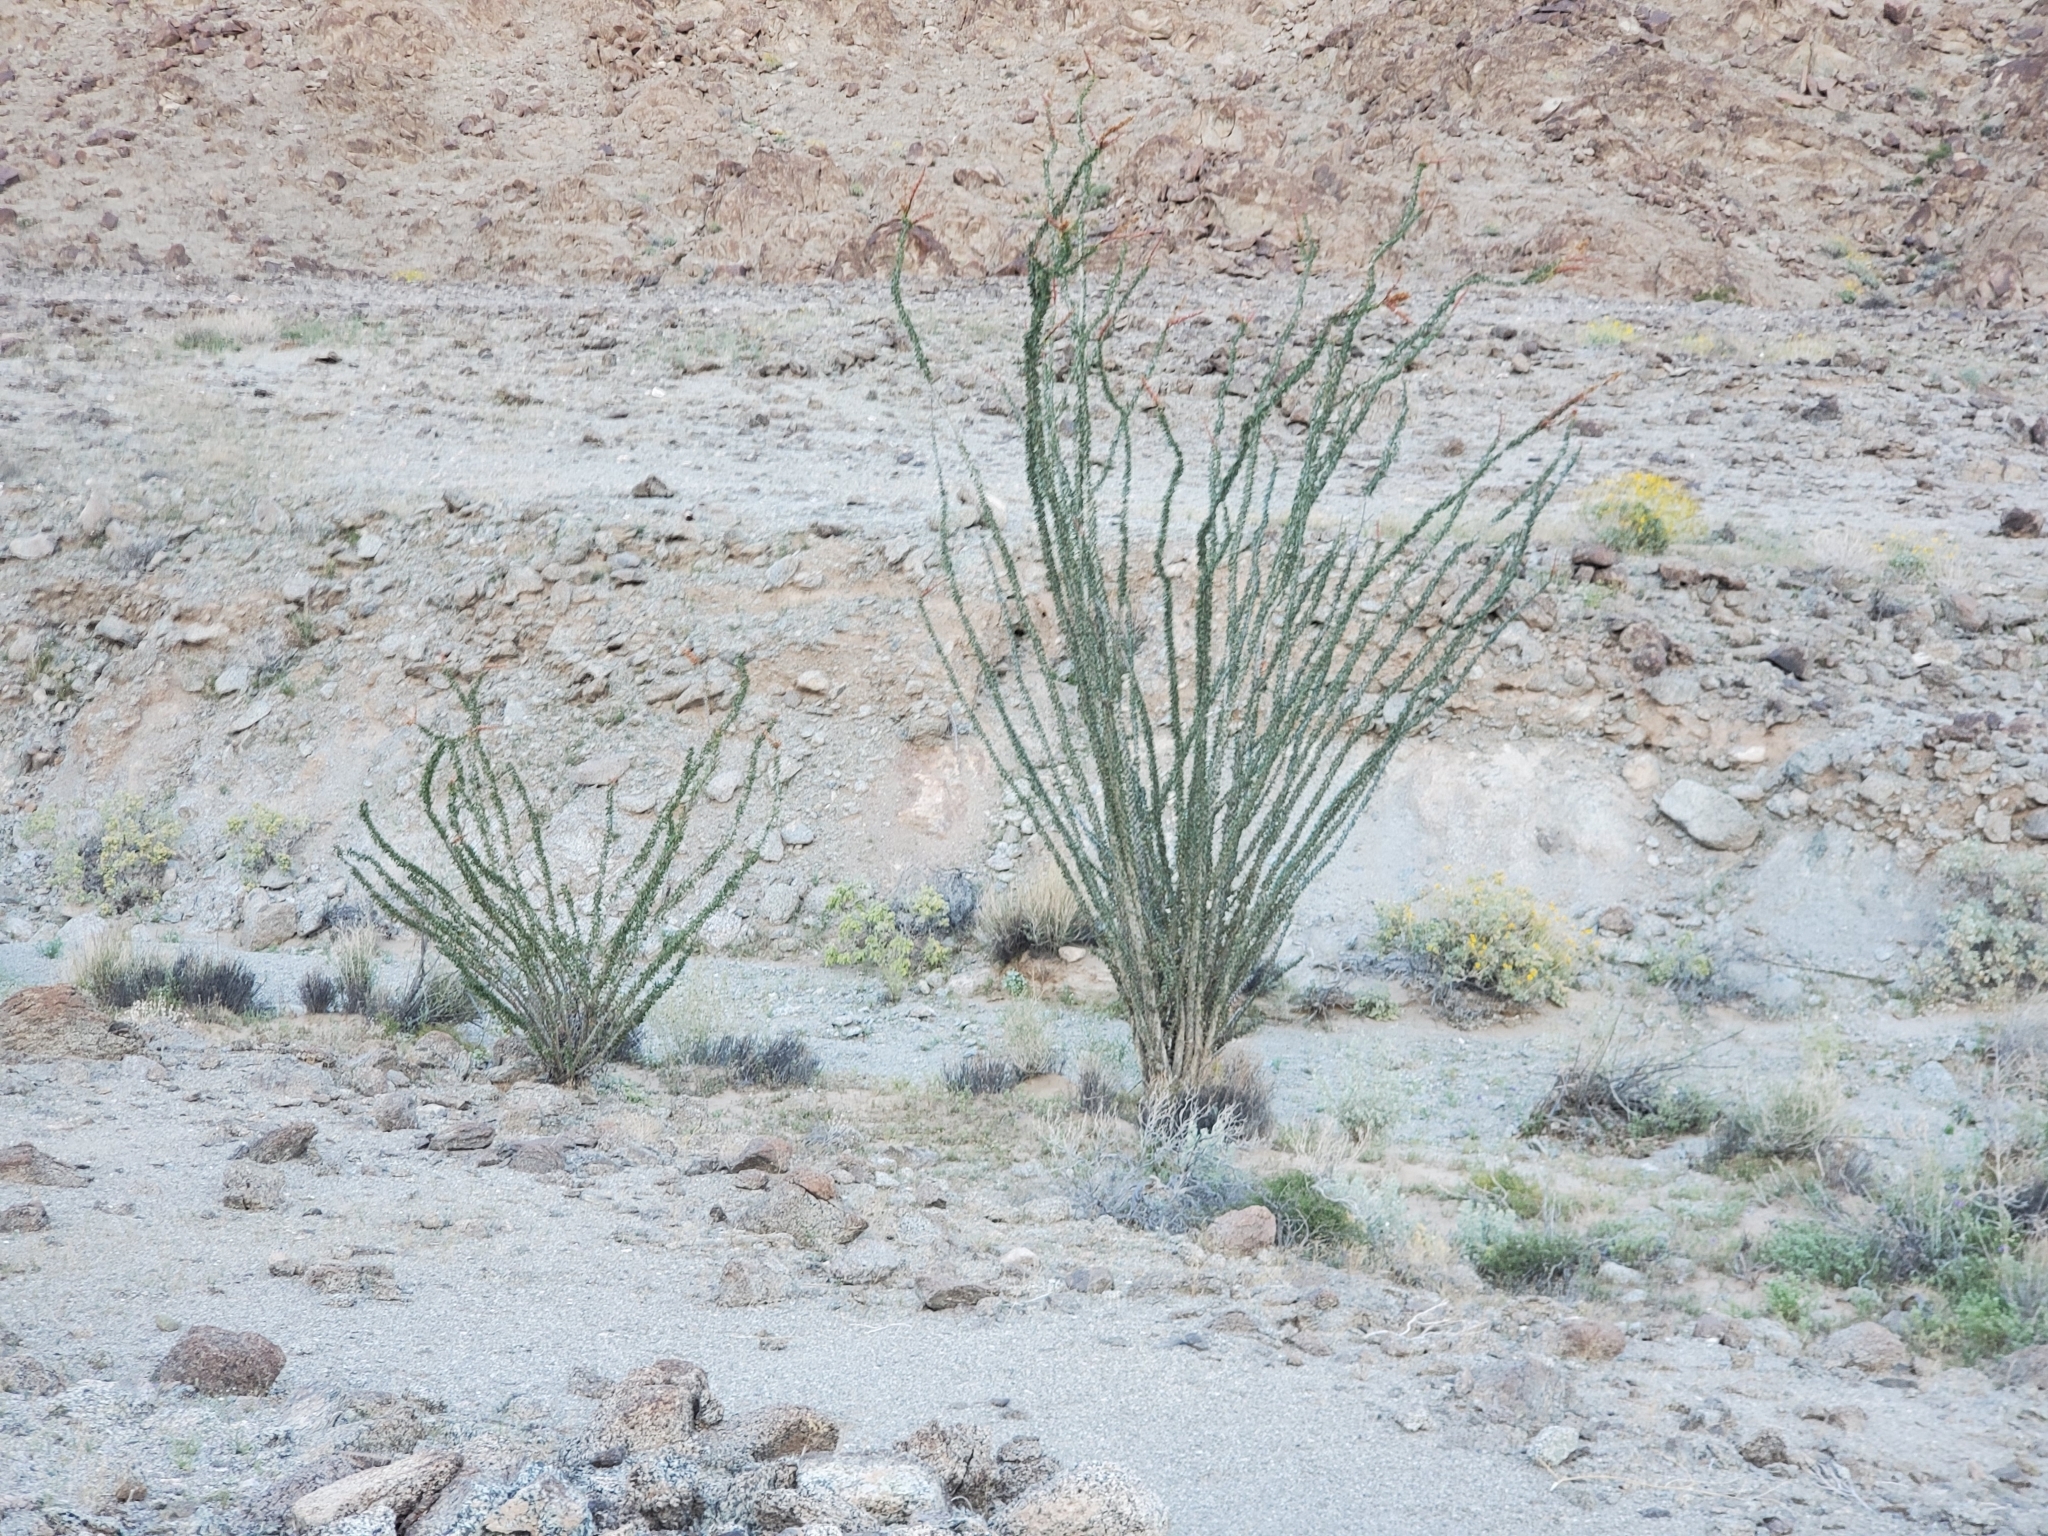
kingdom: Plantae
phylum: Tracheophyta
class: Magnoliopsida
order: Ericales
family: Fouquieriaceae
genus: Fouquieria
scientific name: Fouquieria splendens
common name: Vine-cactus
